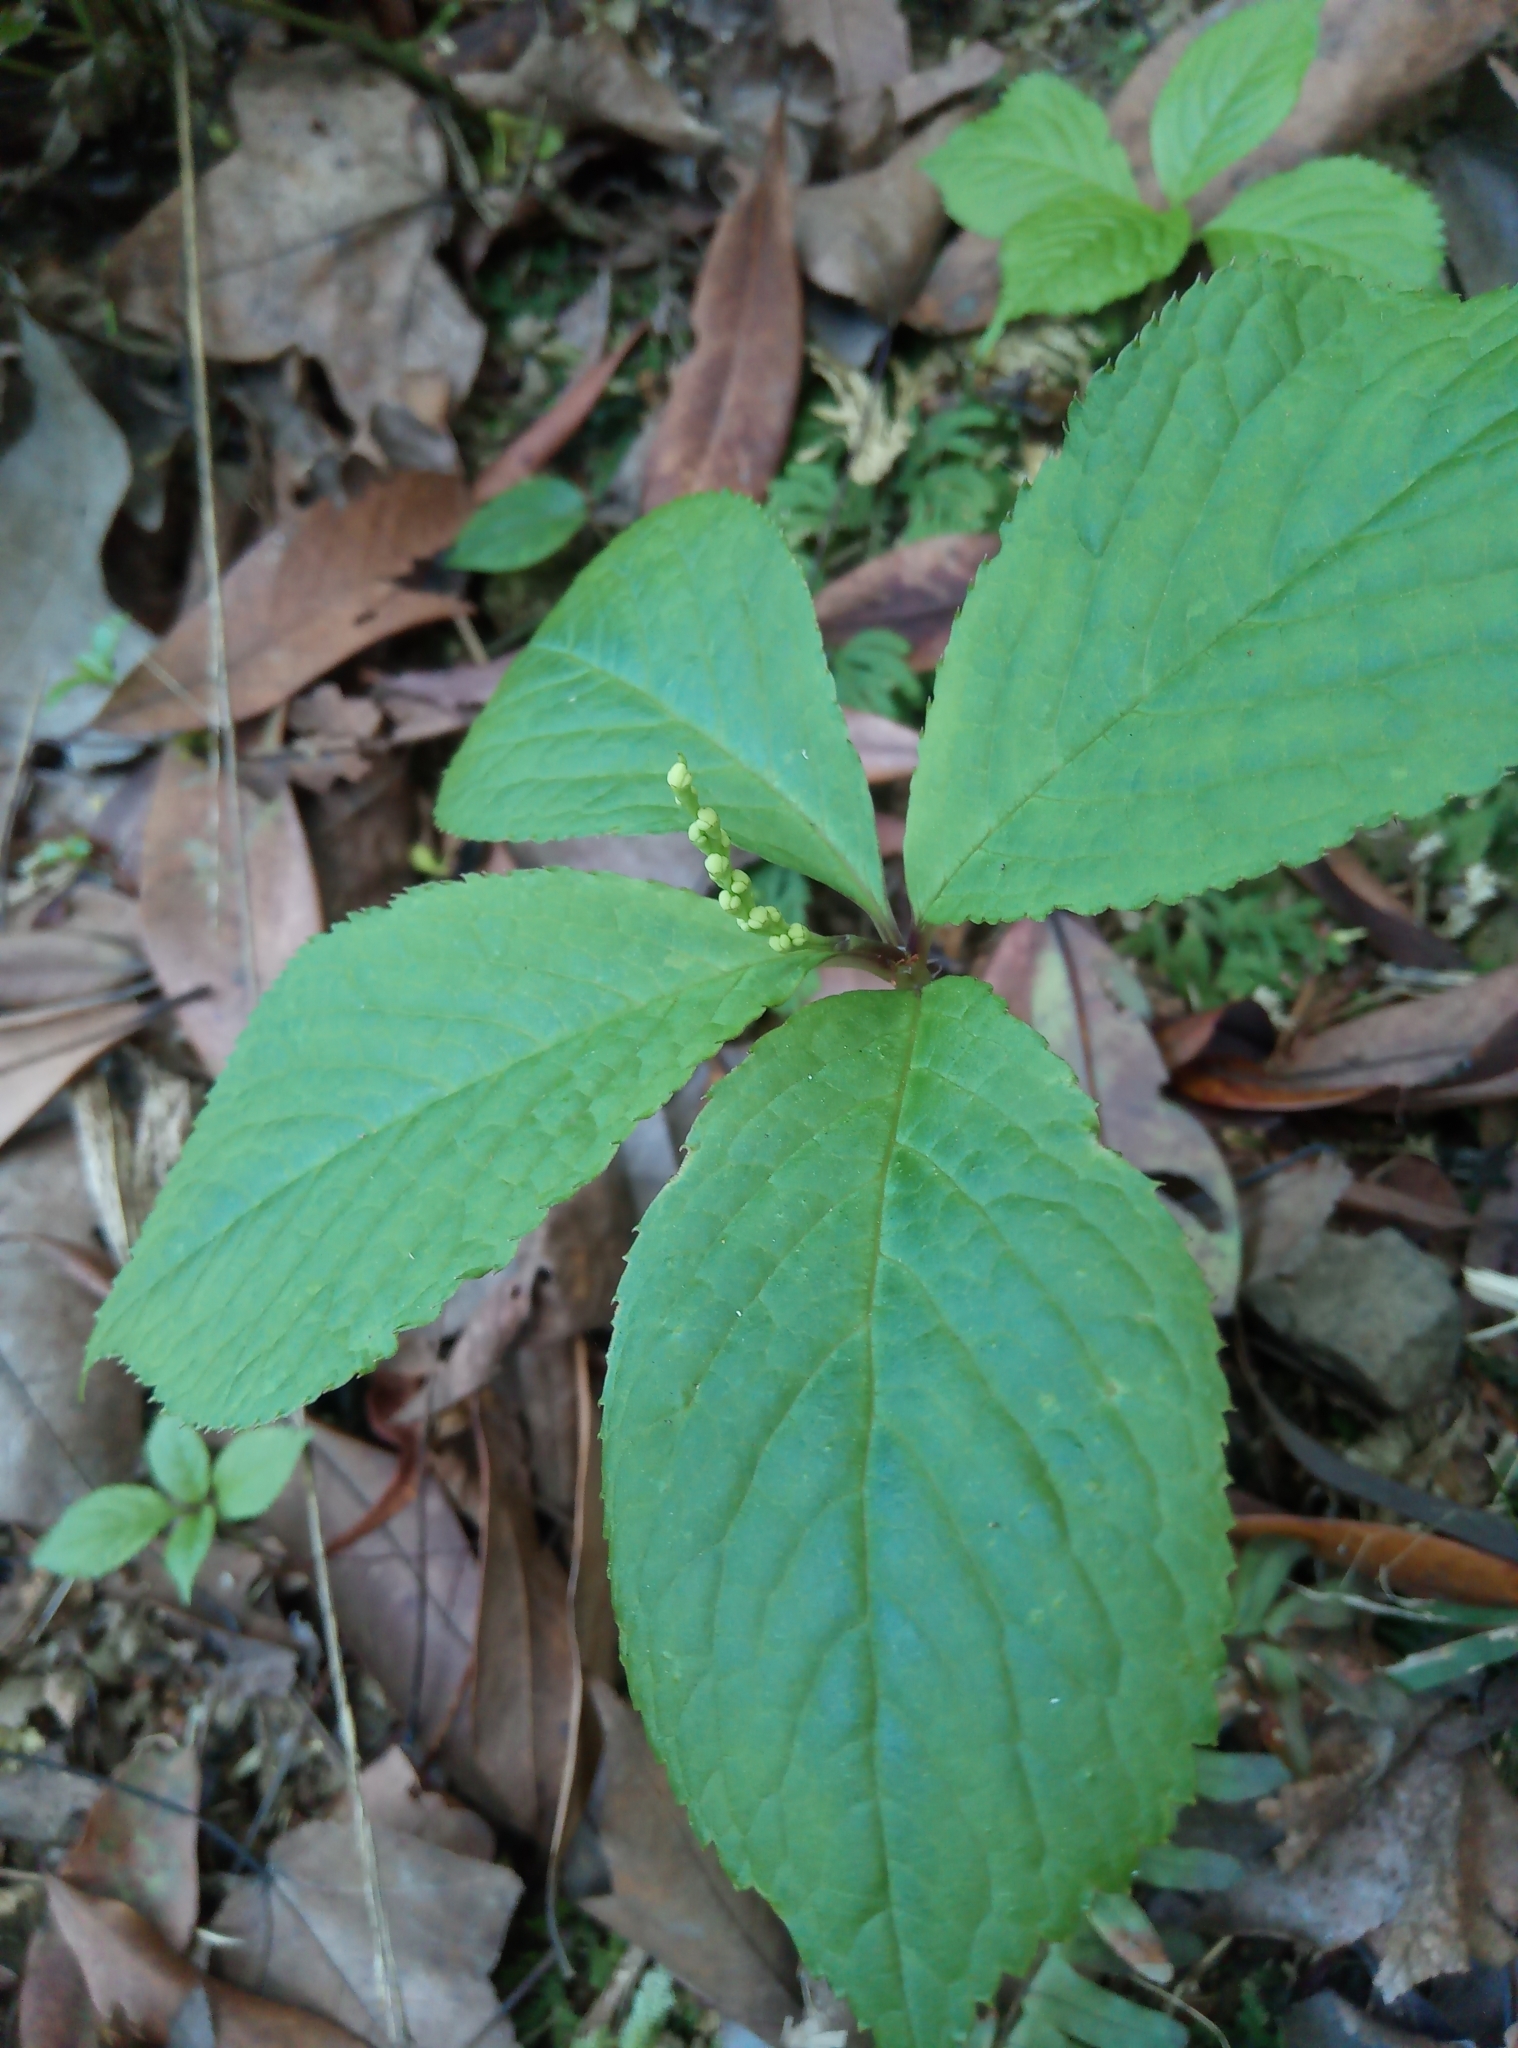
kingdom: Plantae
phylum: Tracheophyta
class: Magnoliopsida
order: Chloranthales
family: Chloranthaceae
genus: Chloranthus
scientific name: Chloranthus serratus
